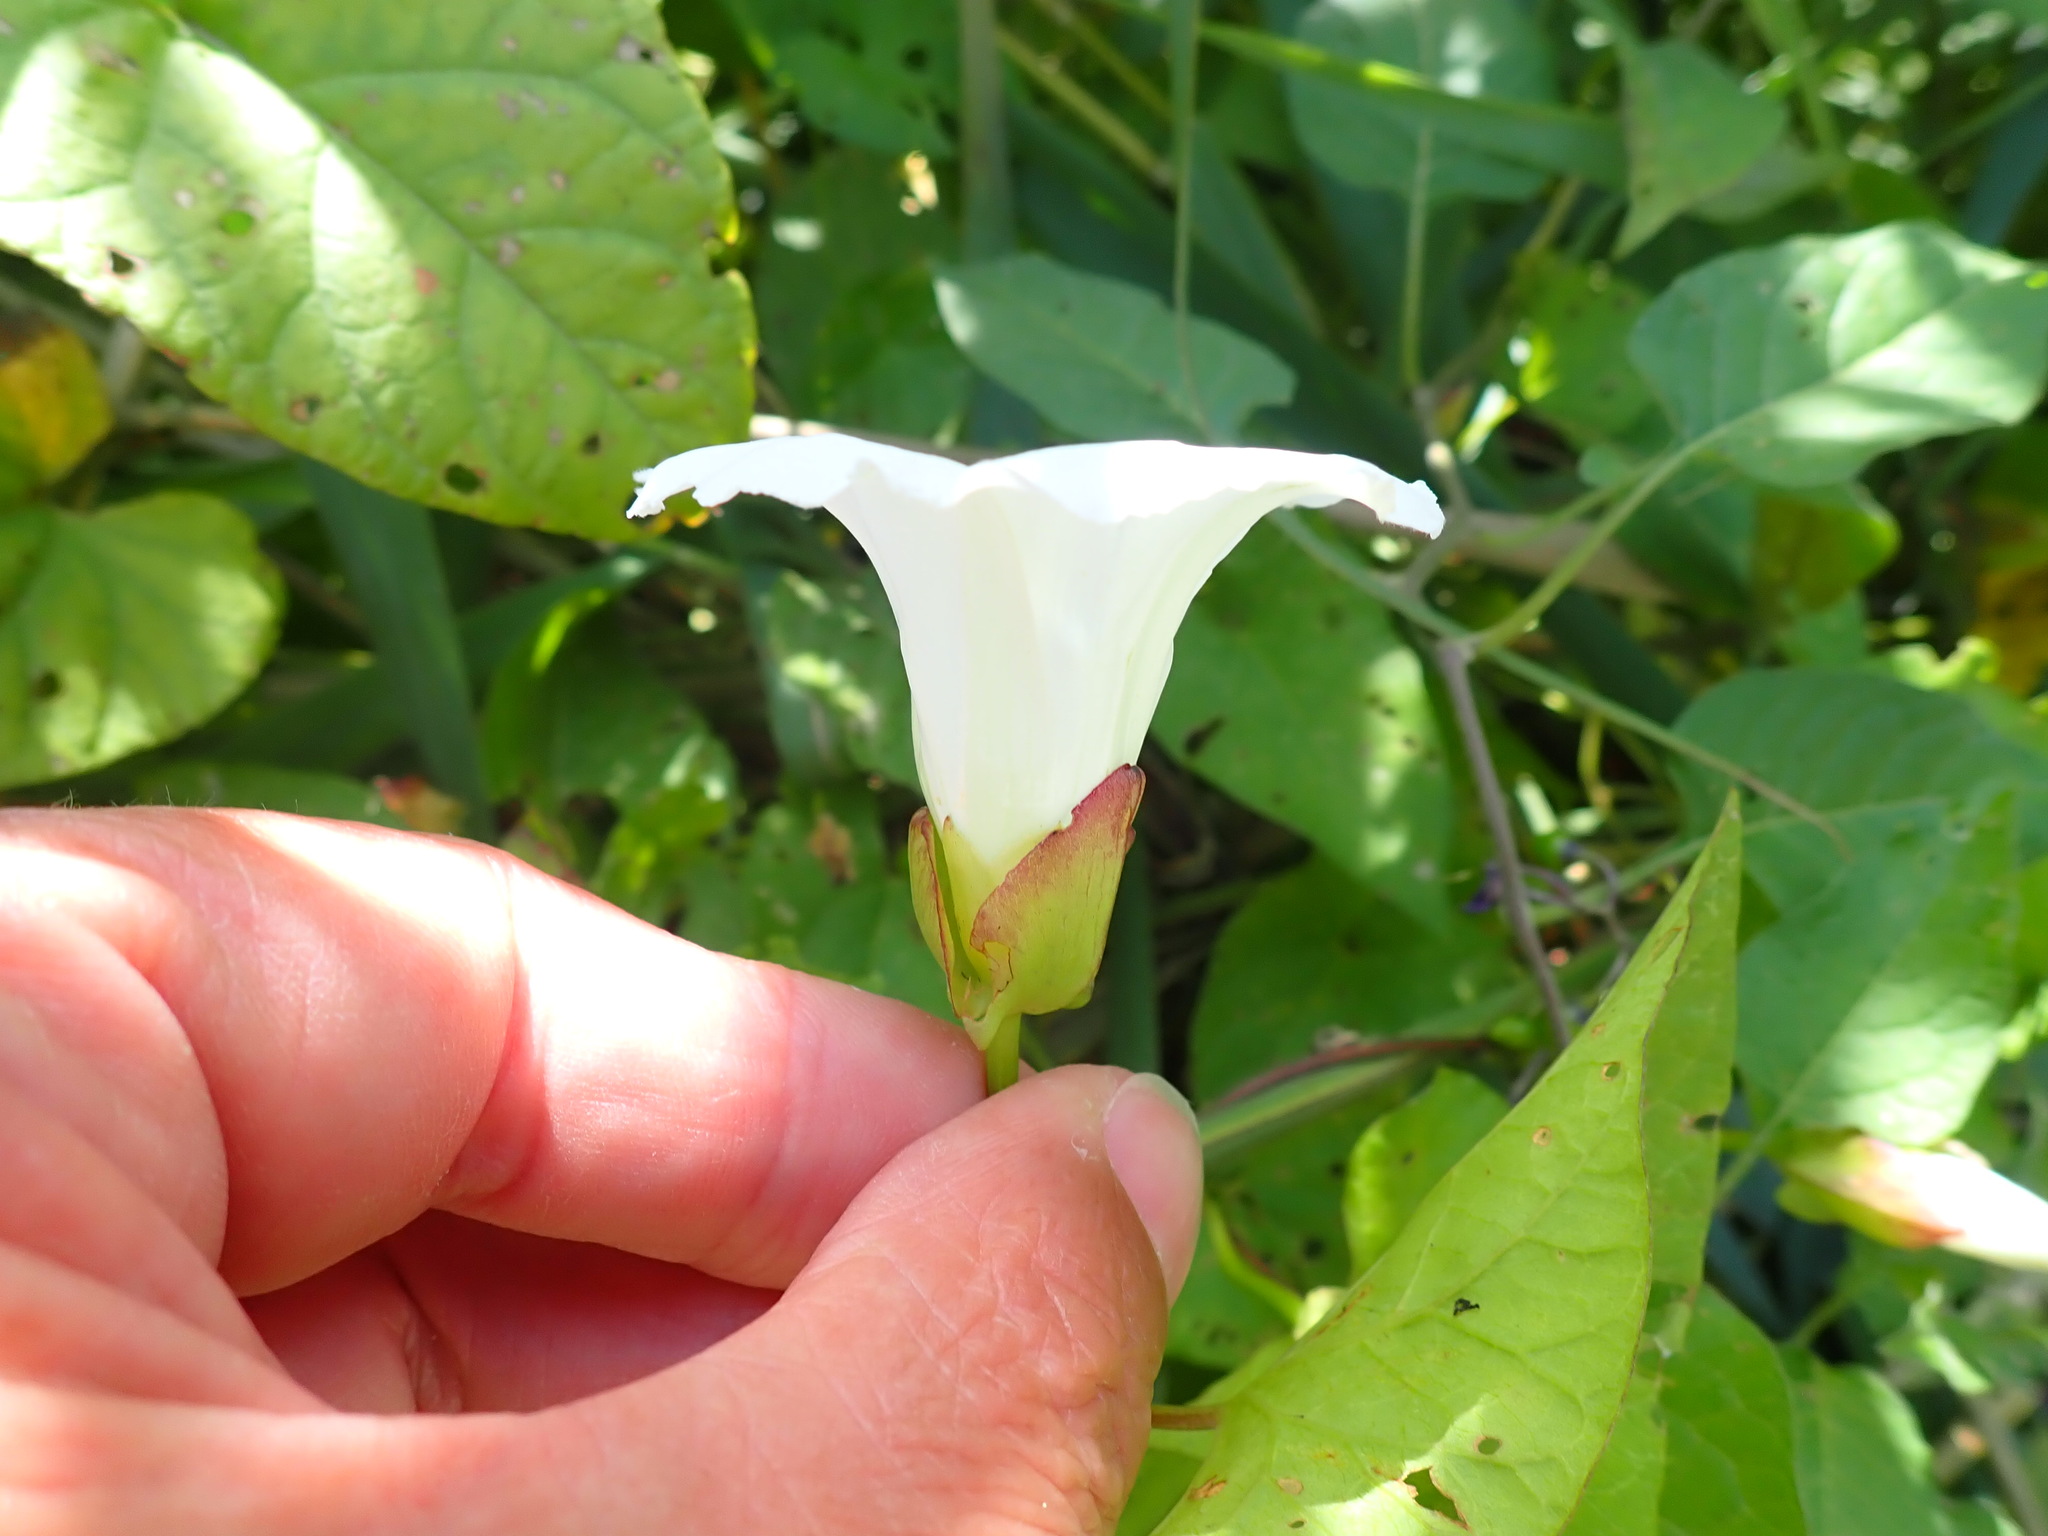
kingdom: Plantae
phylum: Tracheophyta
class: Magnoliopsida
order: Solanales
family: Convolvulaceae
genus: Calystegia
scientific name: Calystegia sepium
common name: Hedge bindweed
